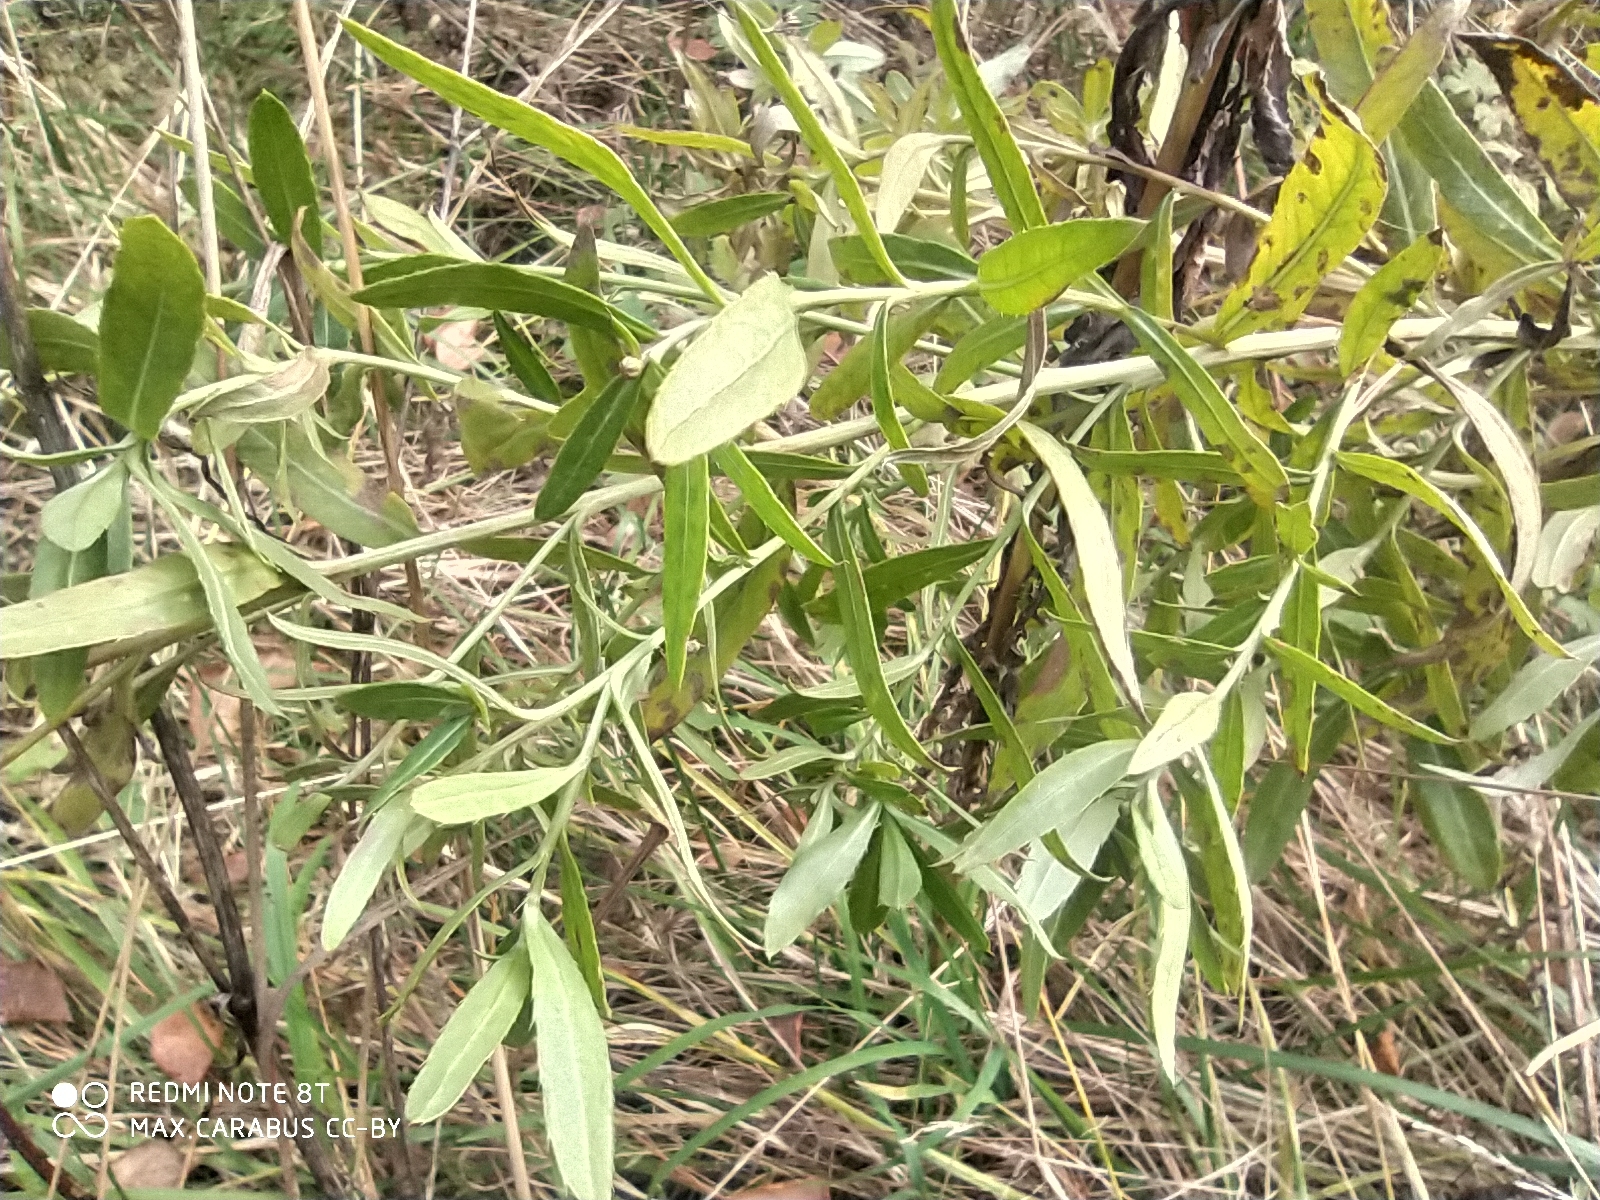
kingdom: Plantae
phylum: Tracheophyta
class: Magnoliopsida
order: Asterales
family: Asteraceae
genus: Cirsium
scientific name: Cirsium arvense
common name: Creeping thistle
